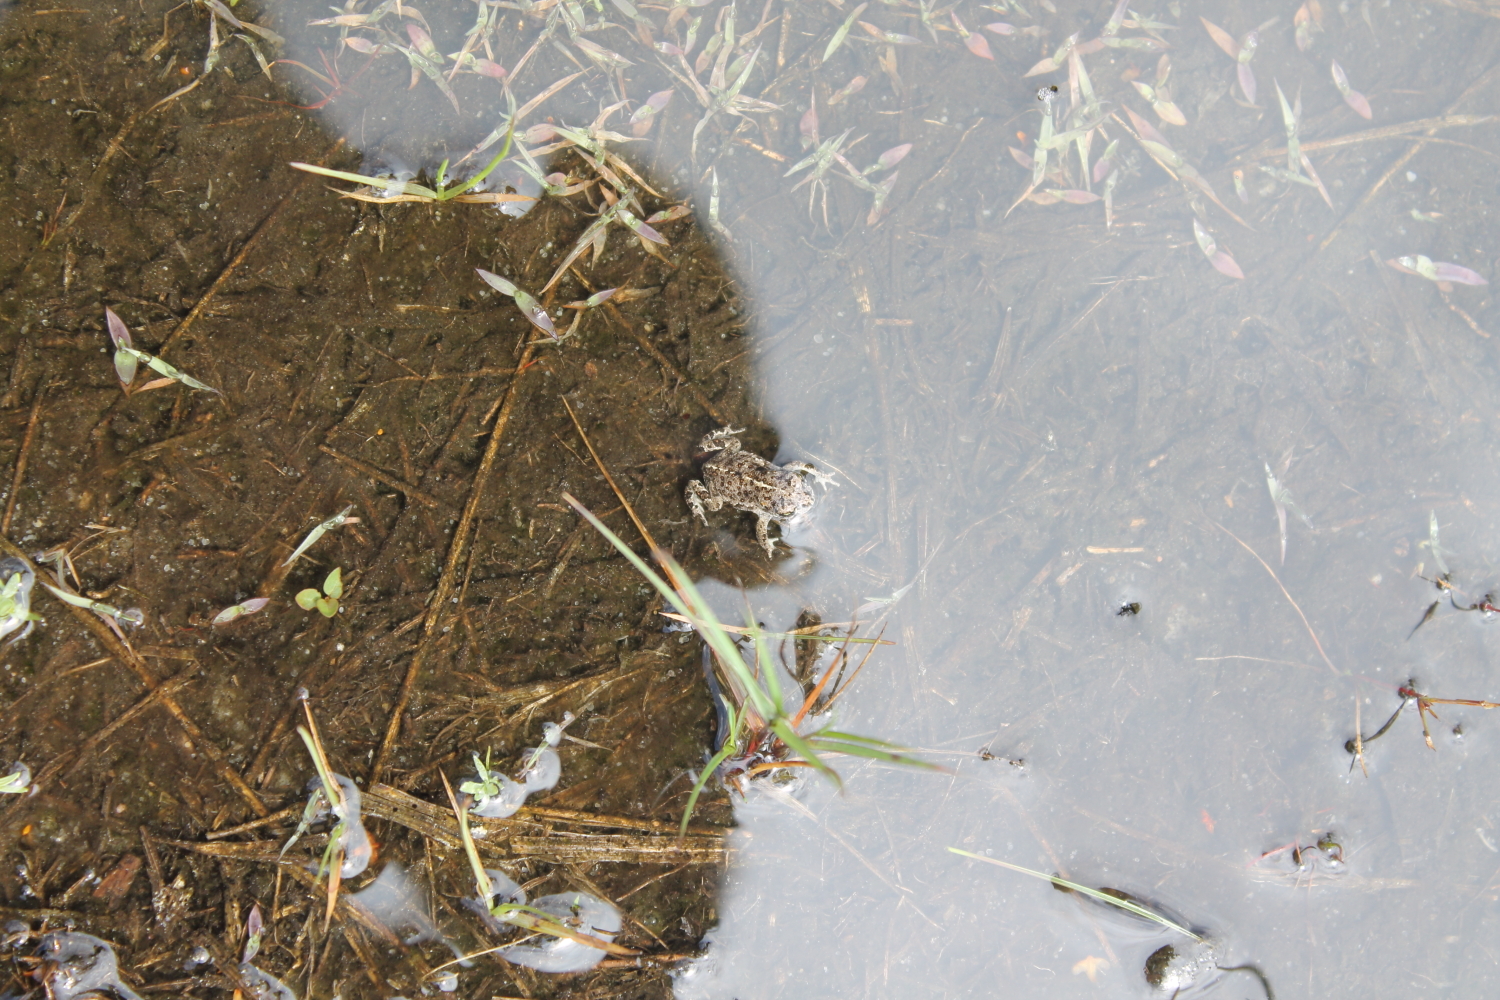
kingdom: Animalia
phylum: Chordata
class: Amphibia
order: Anura
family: Bufonidae
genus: Epidalea
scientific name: Epidalea calamita
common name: Natterjack toad
